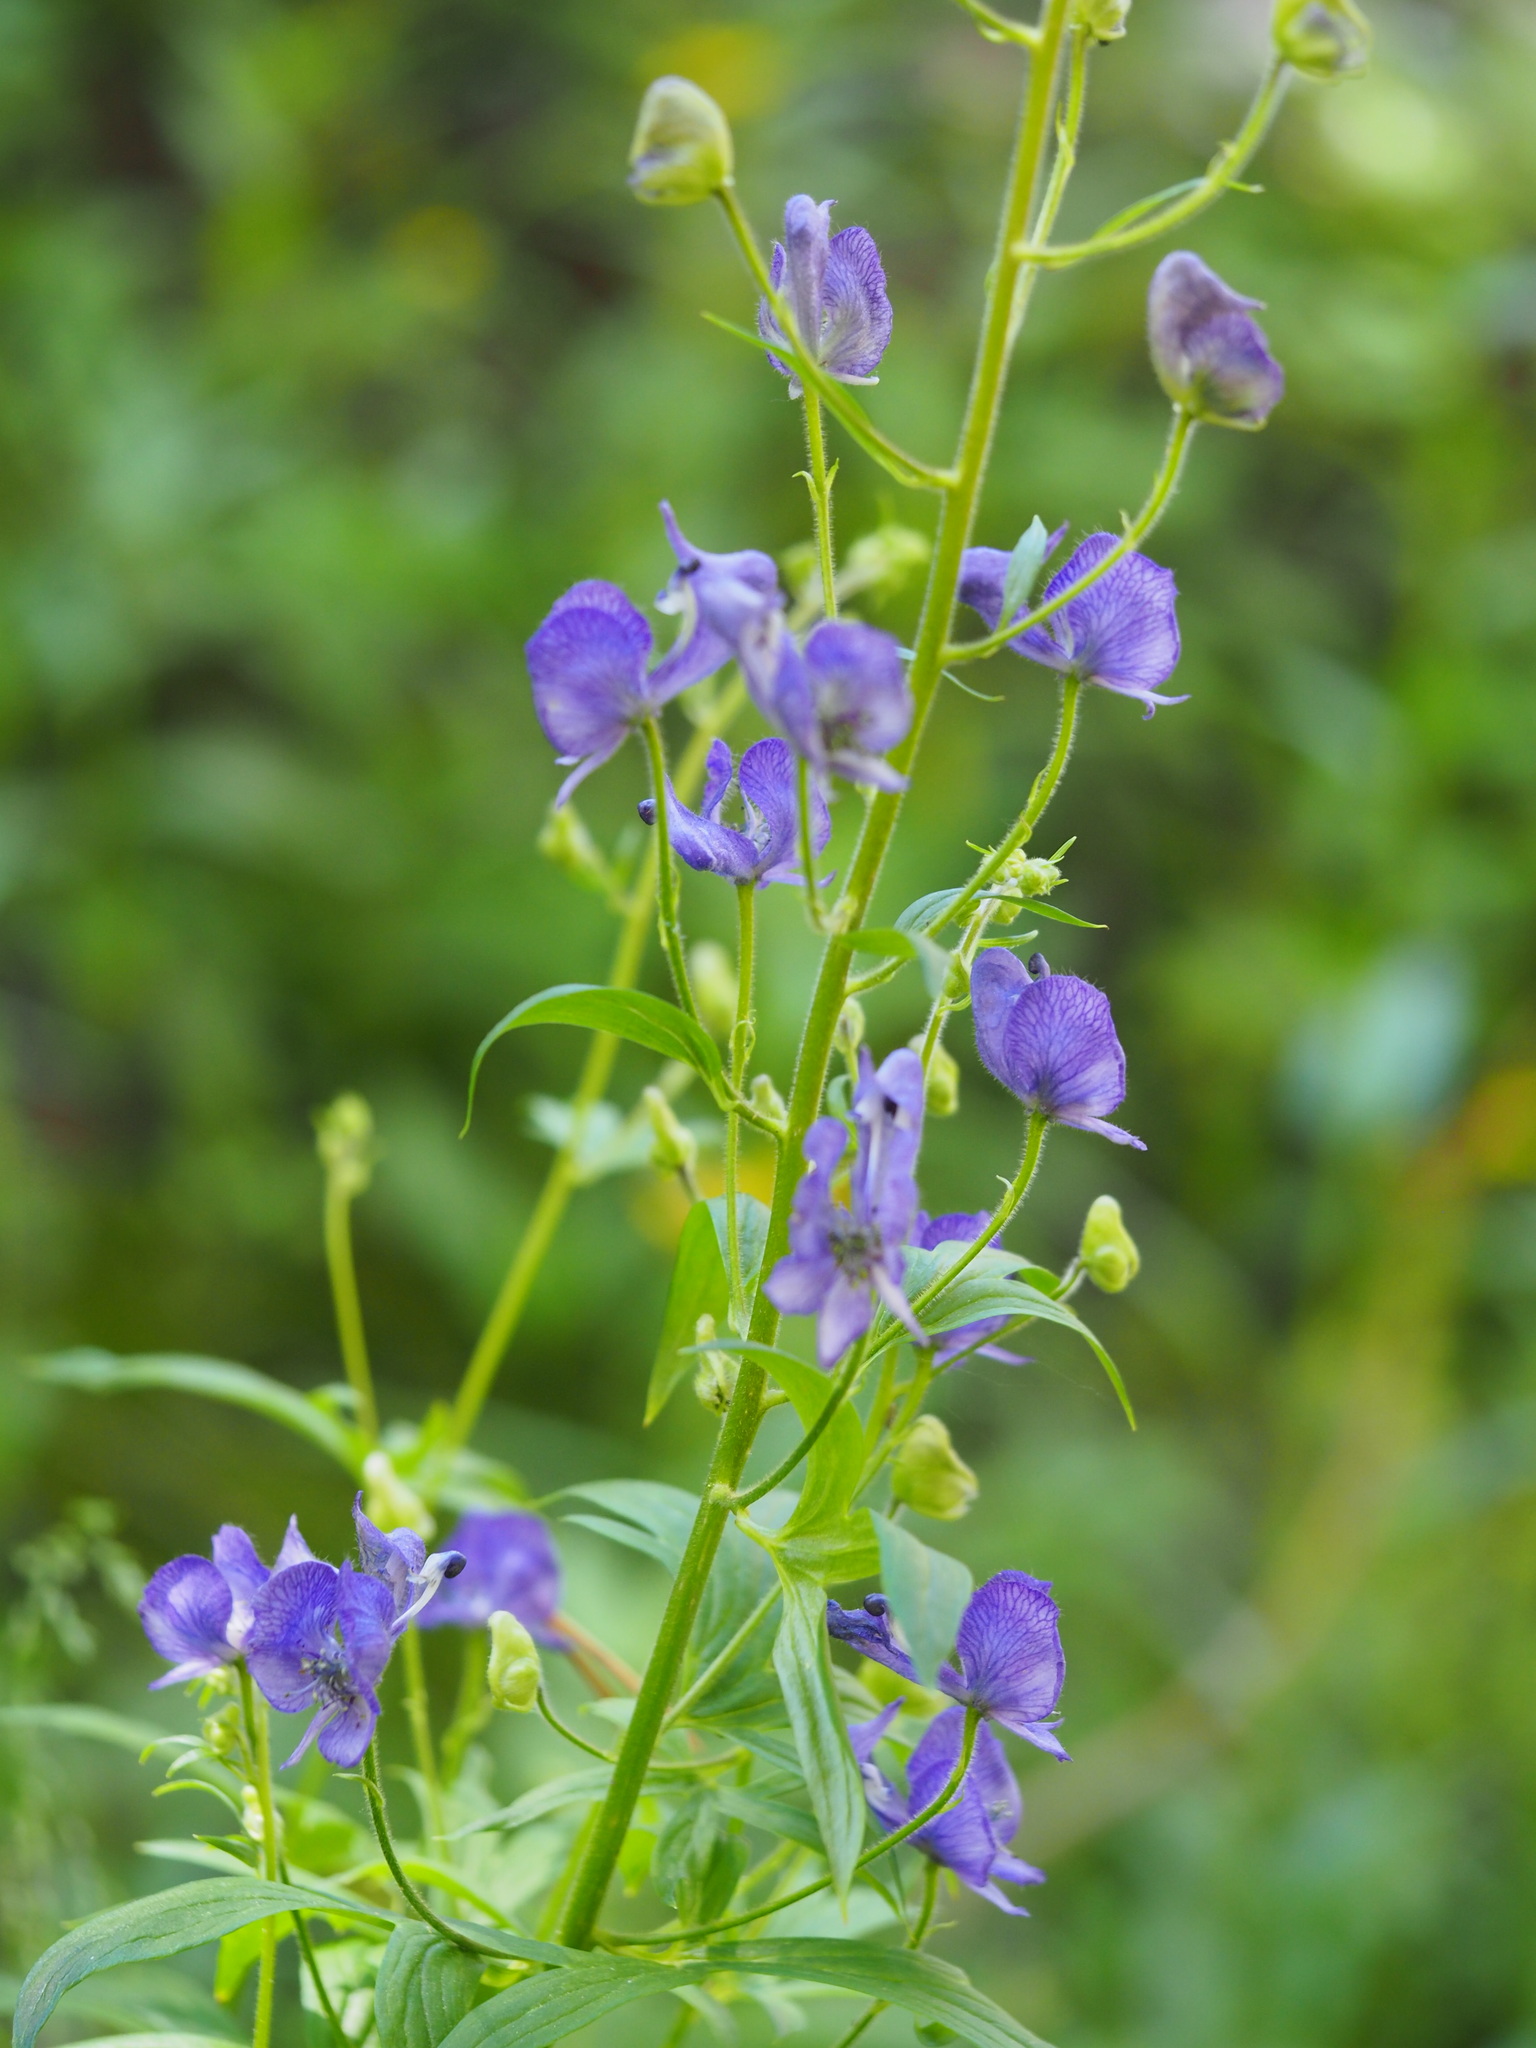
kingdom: Plantae
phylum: Tracheophyta
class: Magnoliopsida
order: Ranunculales
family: Ranunculaceae
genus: Aconitum
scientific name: Aconitum columbianum
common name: Columbia aconite
